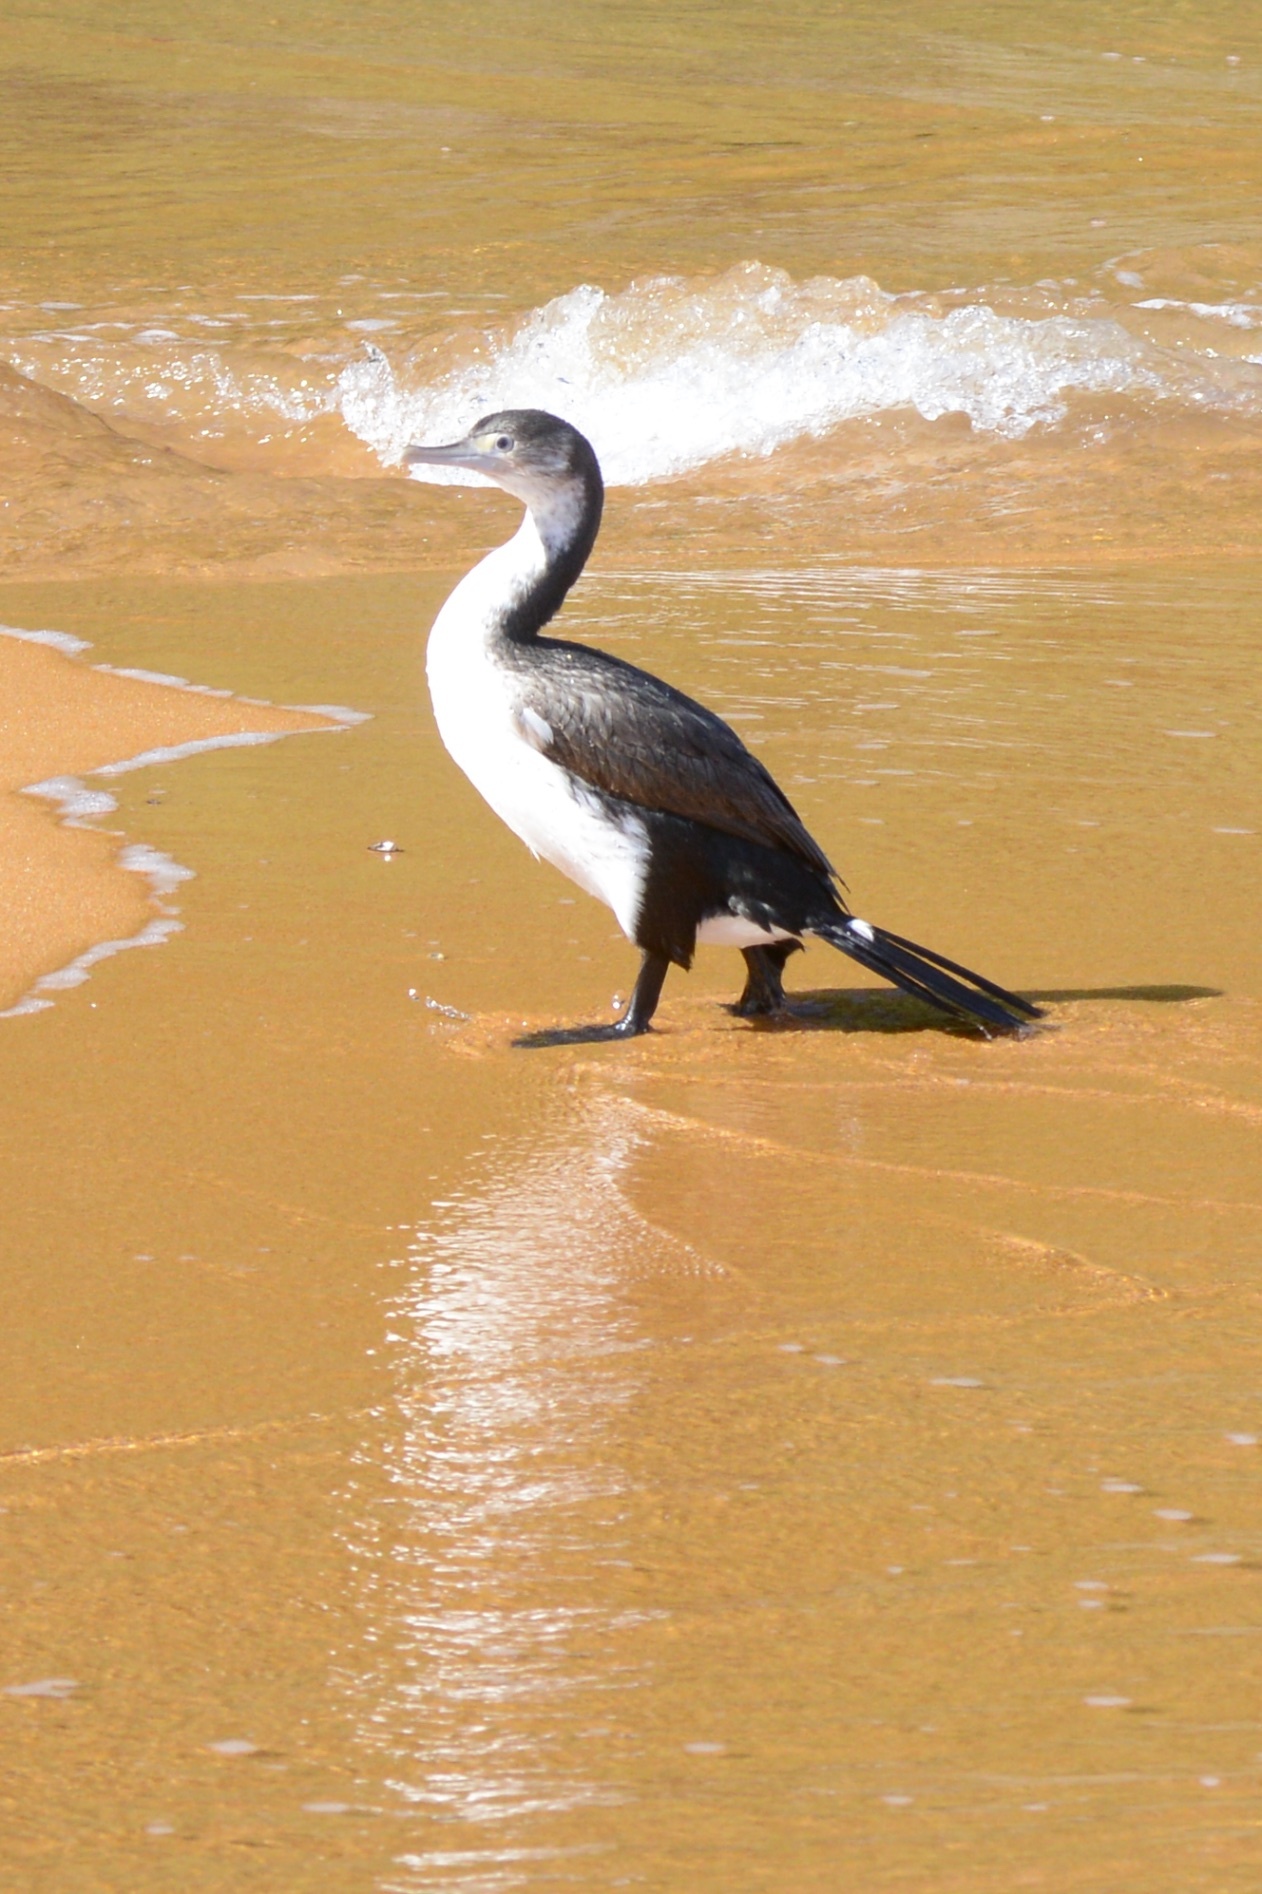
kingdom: Animalia
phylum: Chordata
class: Aves
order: Suliformes
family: Phalacrocoracidae
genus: Phalacrocorax
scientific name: Phalacrocorax varius
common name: Pied cormorant
